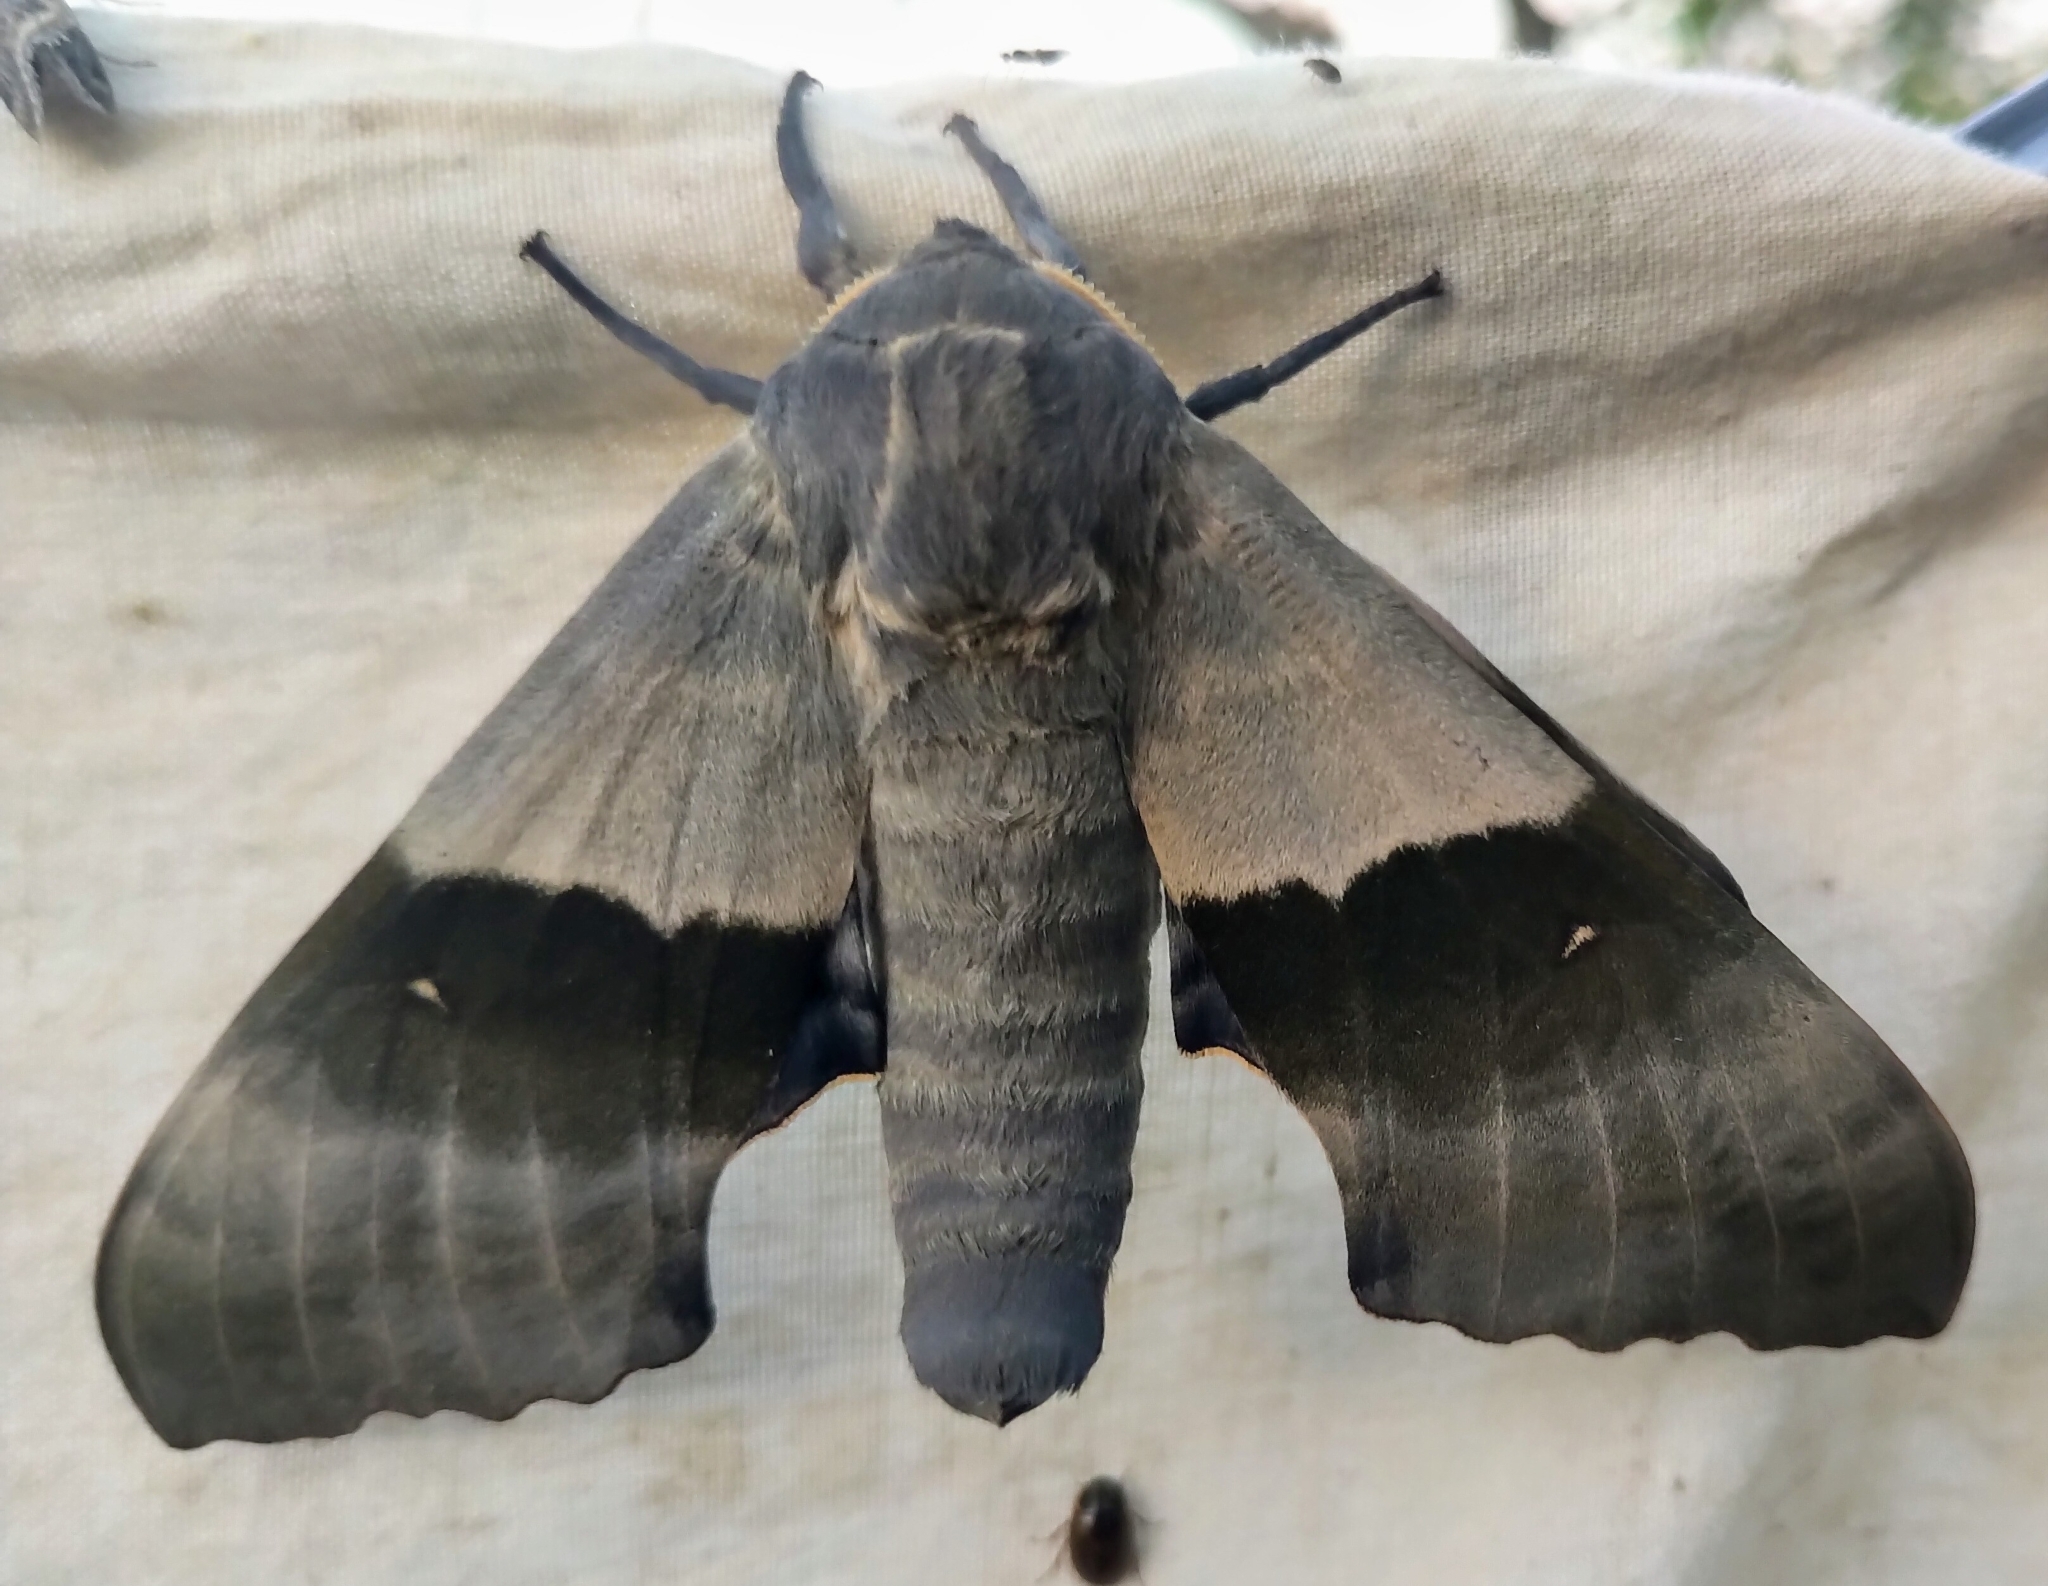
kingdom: Animalia
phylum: Arthropoda
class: Insecta
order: Lepidoptera
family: Sphingidae
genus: Pachysphinx
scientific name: Pachysphinx modesta
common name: Big poplar sphinx
